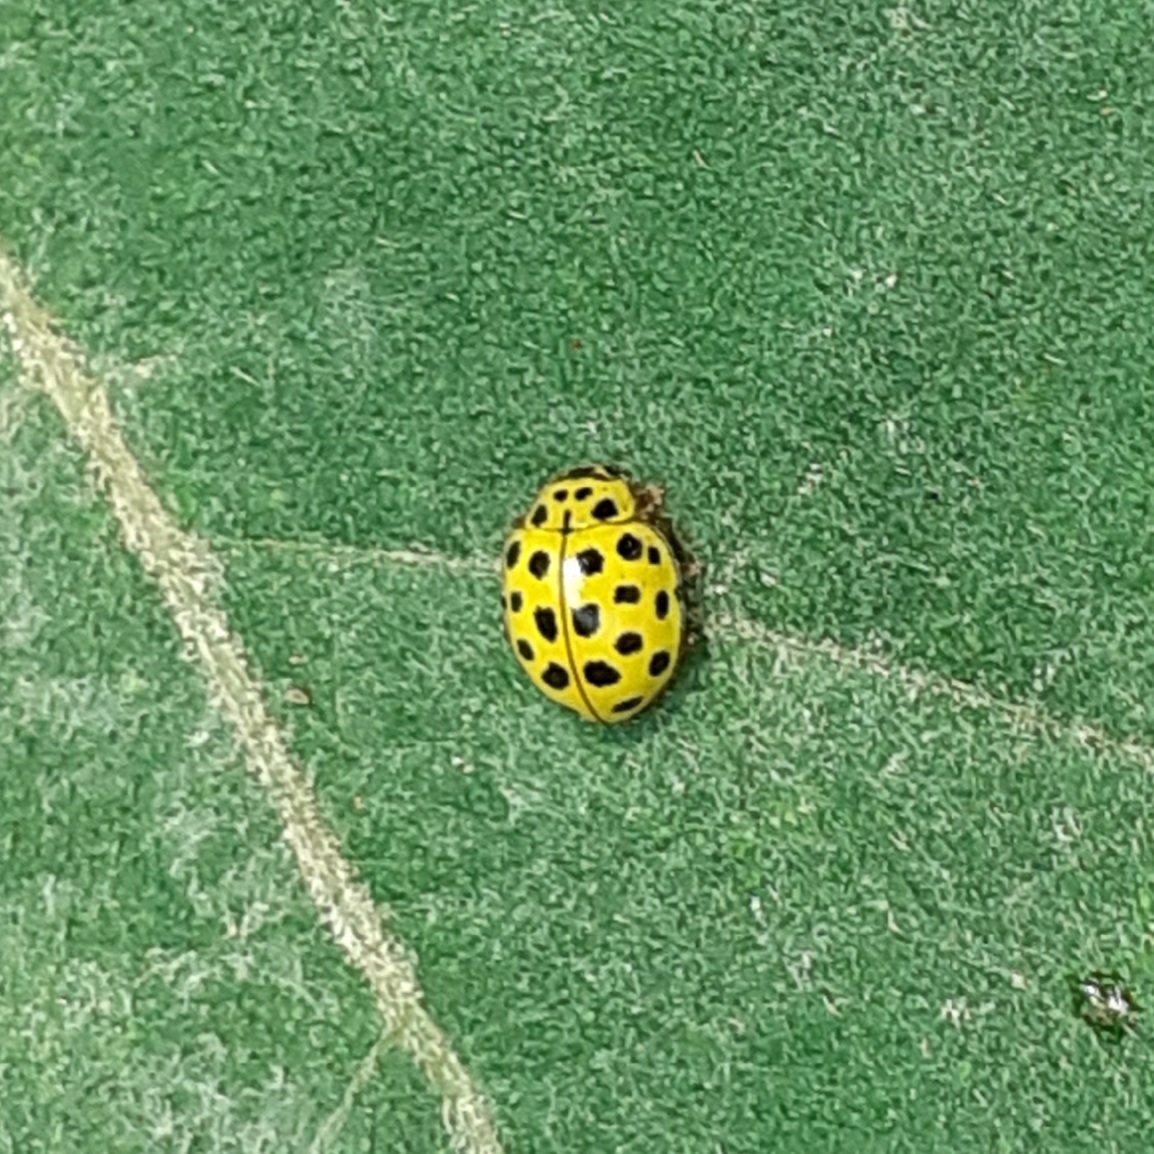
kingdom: Animalia
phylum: Arthropoda
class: Insecta
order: Coleoptera
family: Coccinellidae
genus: Psyllobora
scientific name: Psyllobora vigintiduopunctata
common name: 22-spot ladybird
